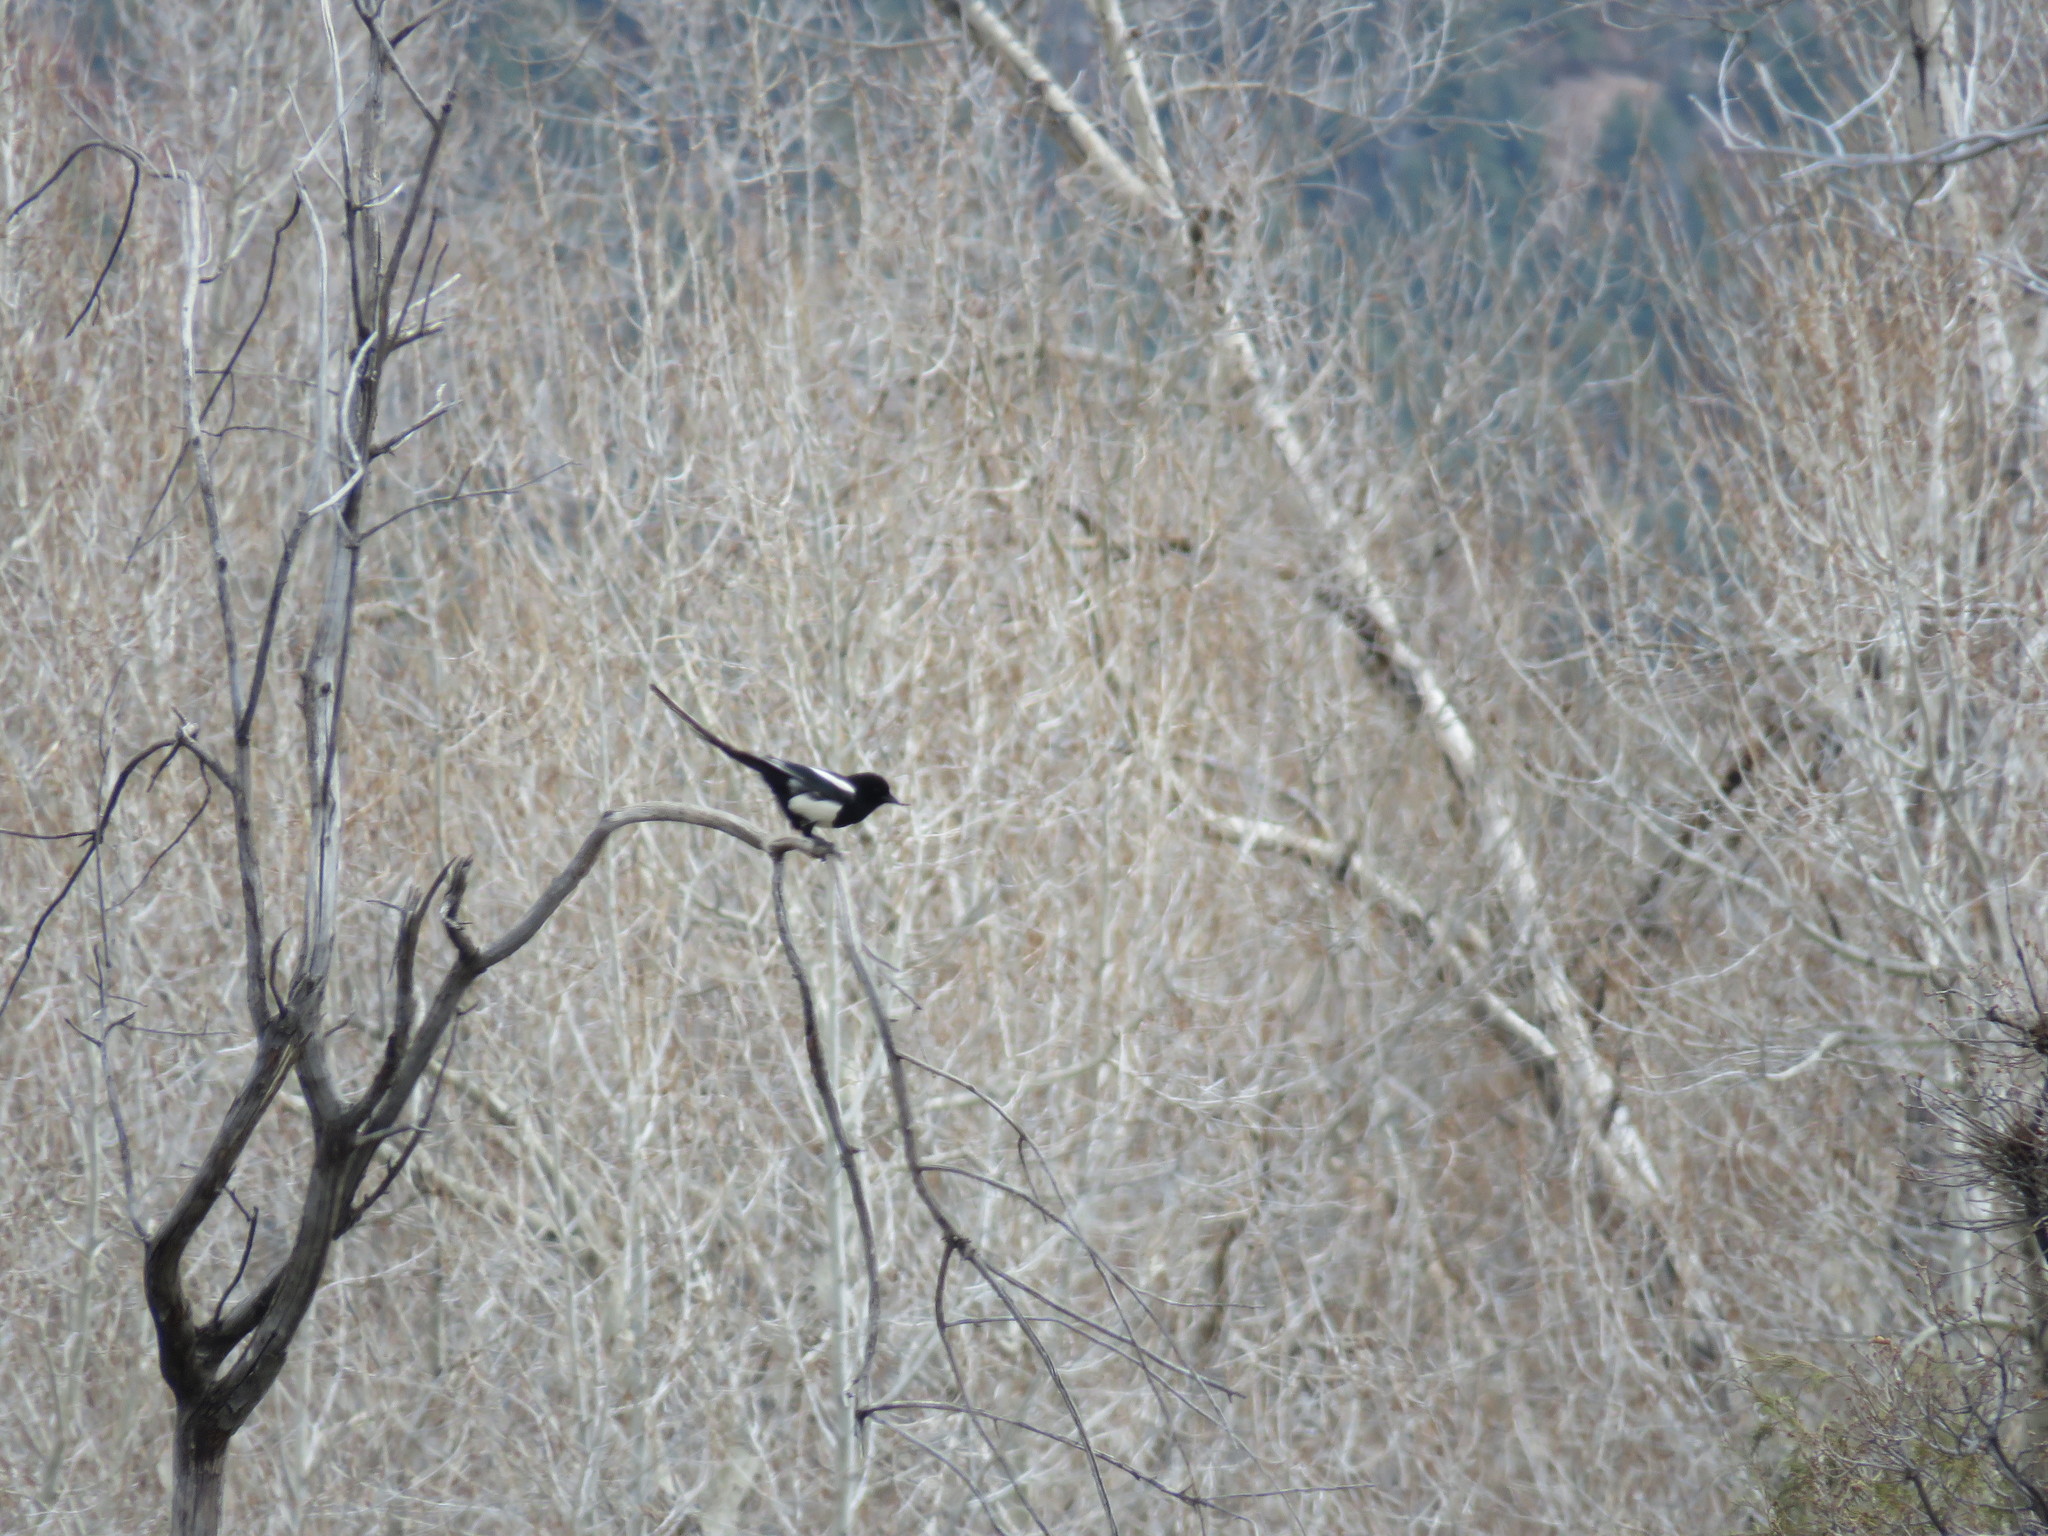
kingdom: Animalia
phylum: Chordata
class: Aves
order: Passeriformes
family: Corvidae
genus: Pica
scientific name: Pica hudsonia
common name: Black-billed magpie
